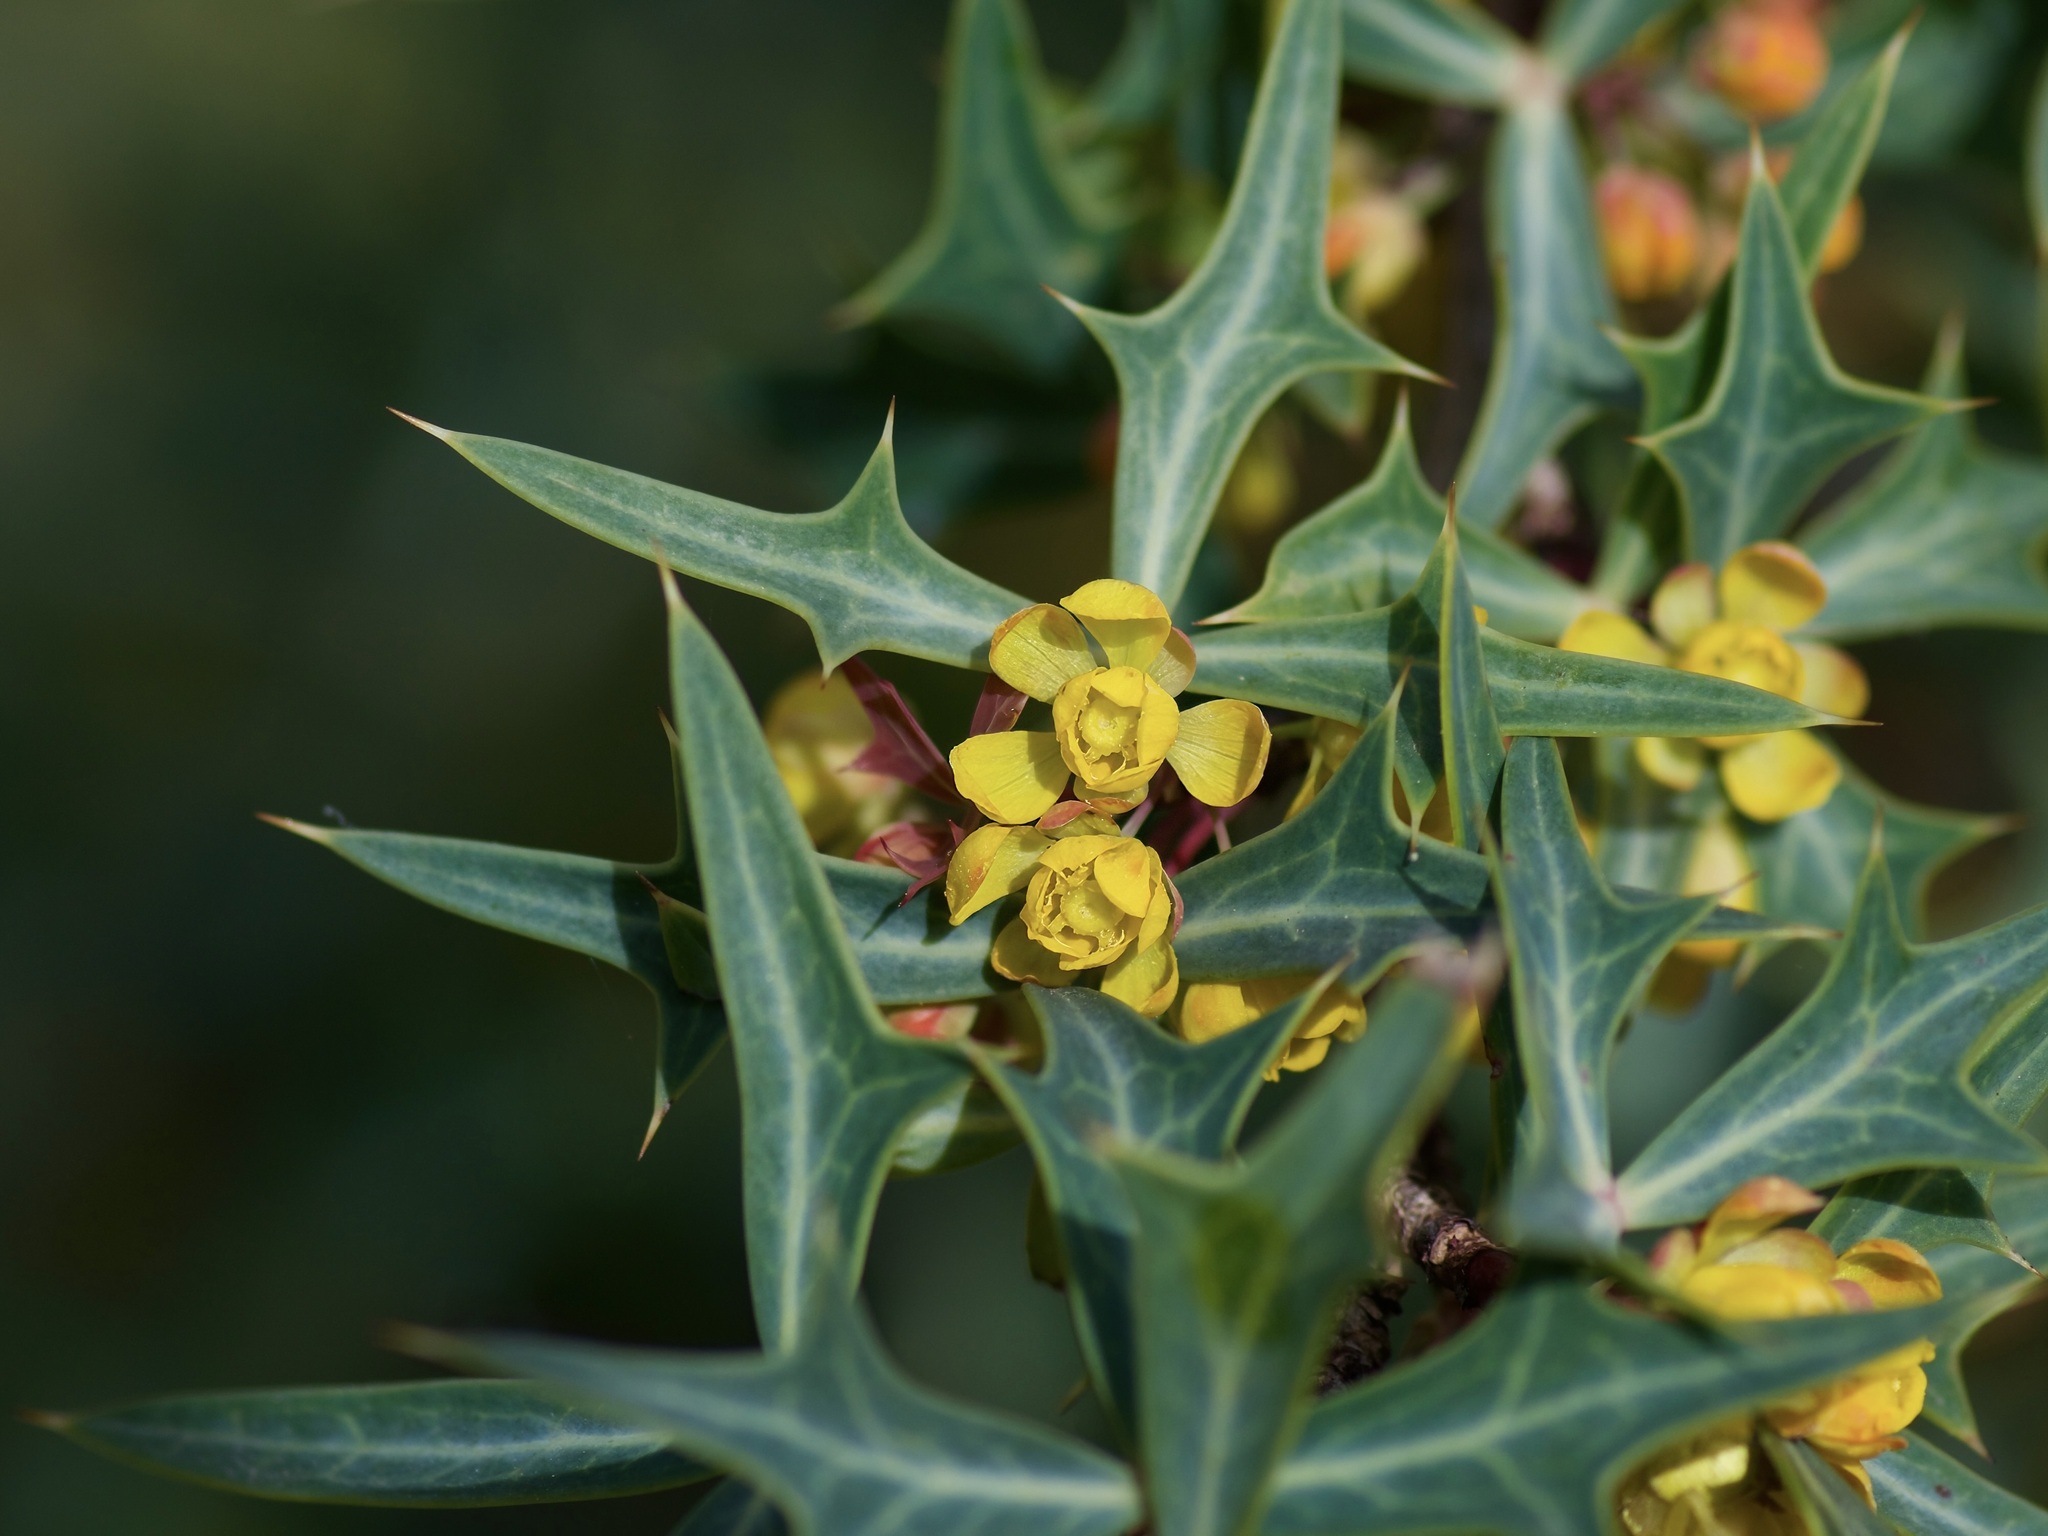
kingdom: Plantae
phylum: Tracheophyta
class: Magnoliopsida
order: Ranunculales
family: Berberidaceae
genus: Alloberberis
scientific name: Alloberberis trifoliolata
